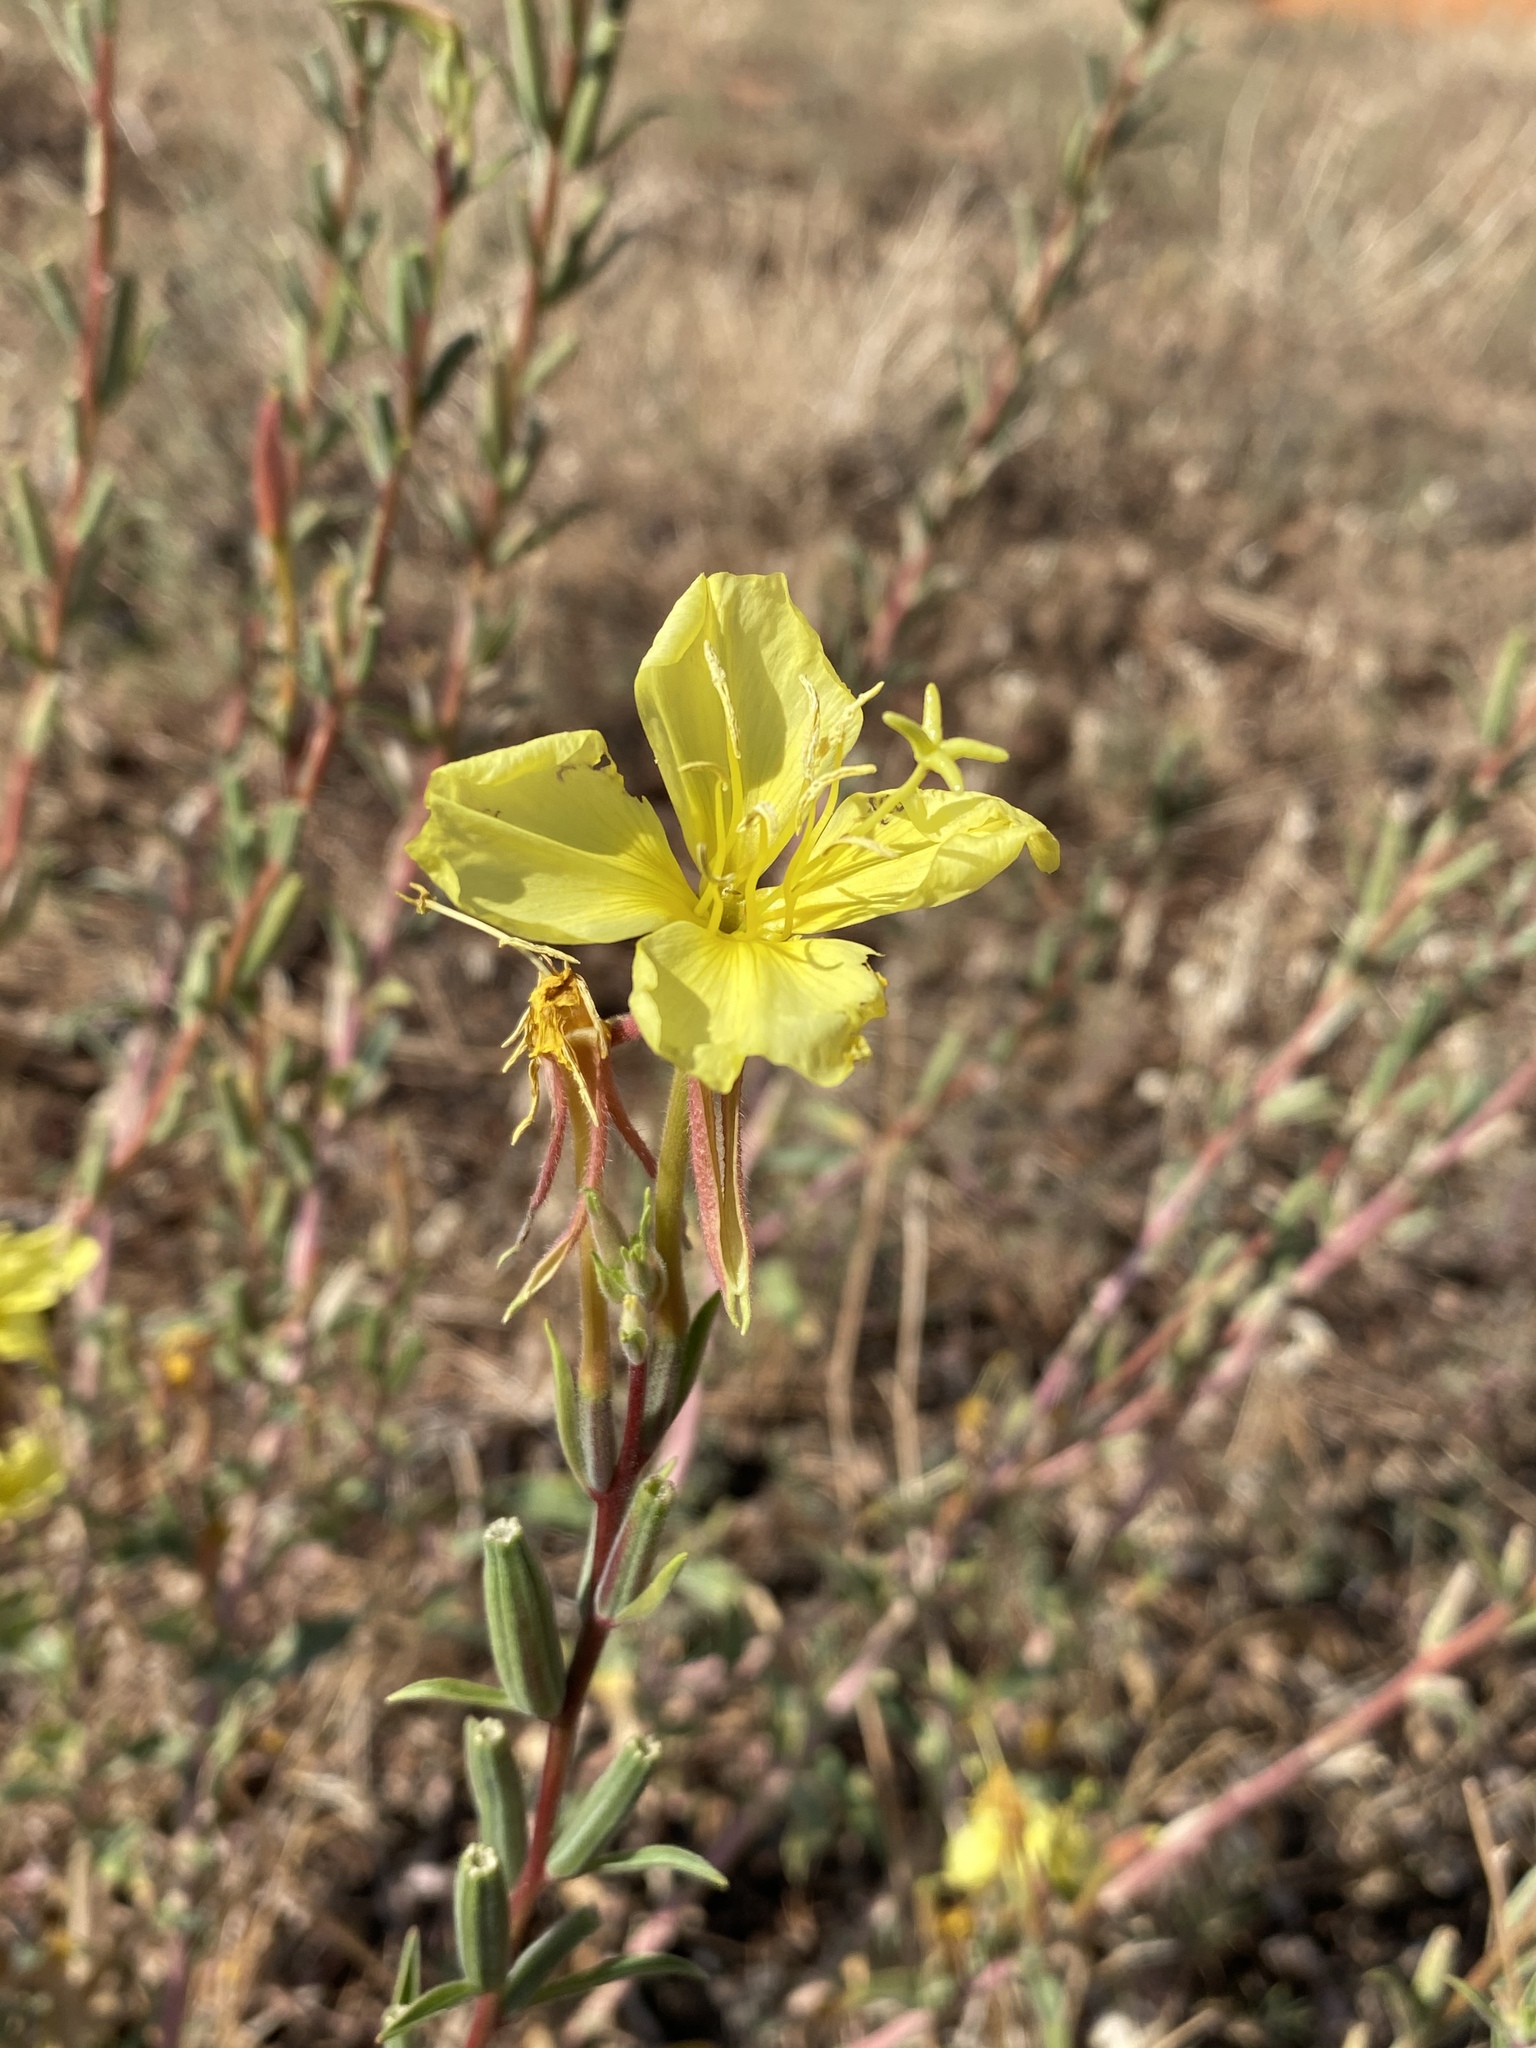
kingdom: Plantae
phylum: Tracheophyta
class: Magnoliopsida
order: Myrtales
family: Onagraceae
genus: Oenothera
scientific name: Oenothera elata
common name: Hooker's evening-primrose
